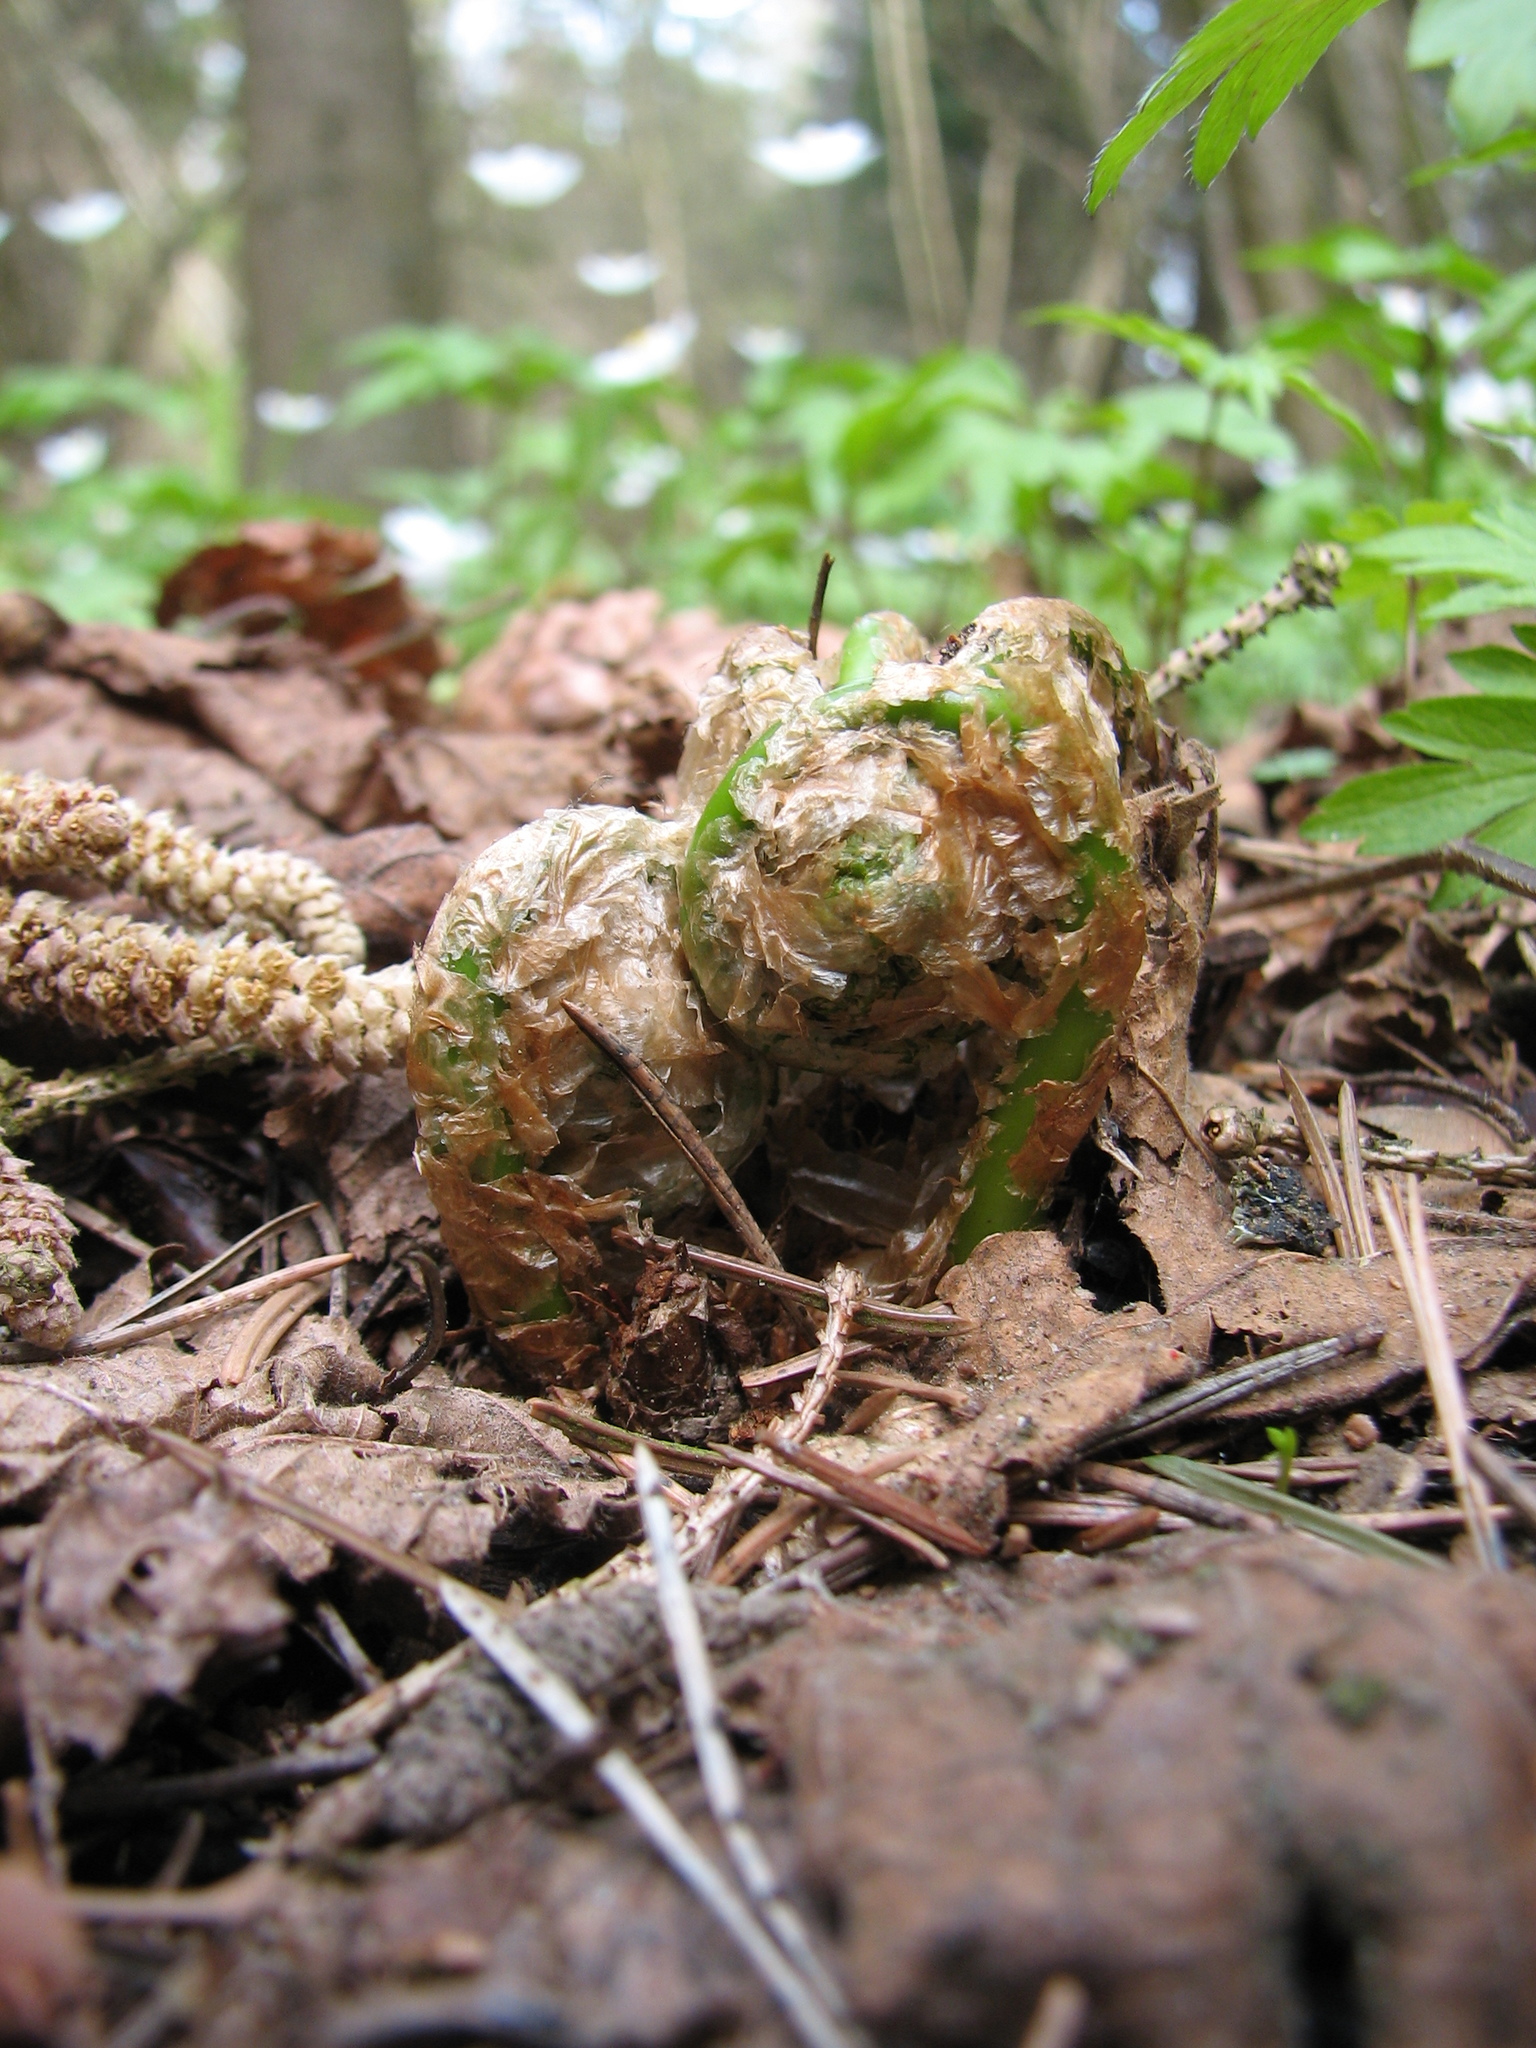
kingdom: Plantae
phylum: Tracheophyta
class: Polypodiopsida
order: Polypodiales
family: Dryopteridaceae
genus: Dryopteris
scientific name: Dryopteris filix-mas
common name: Male fern
